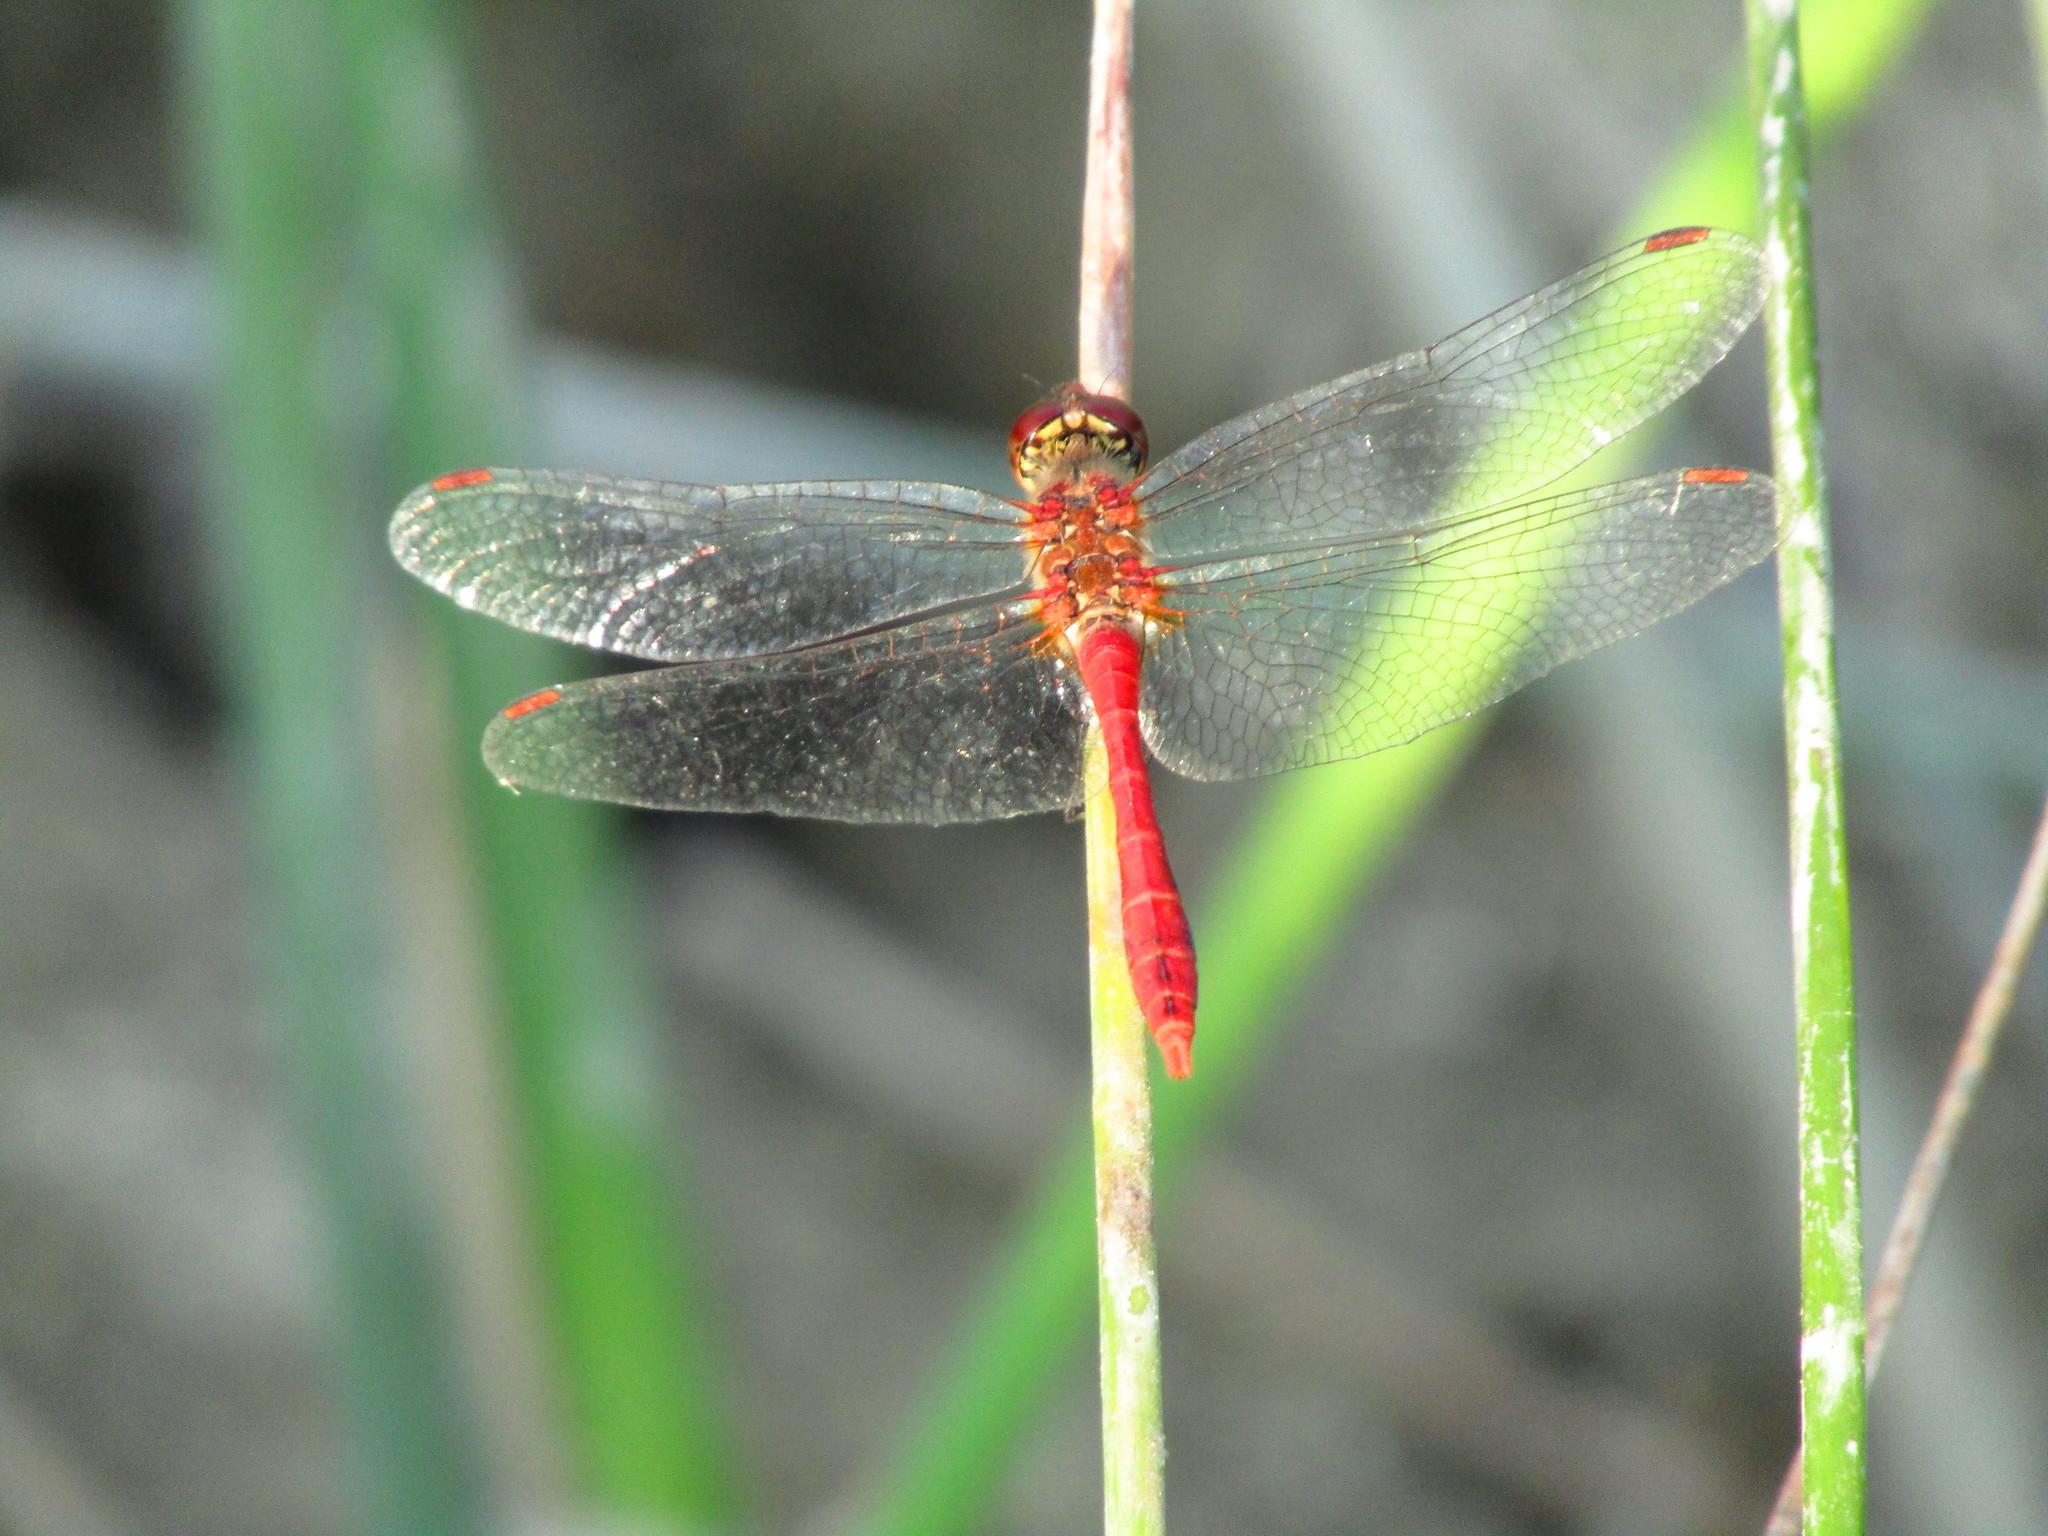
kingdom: Animalia
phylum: Arthropoda
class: Insecta
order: Odonata
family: Libellulidae
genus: Sympetrum
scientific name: Sympetrum sanguineum
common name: Ruddy darter
